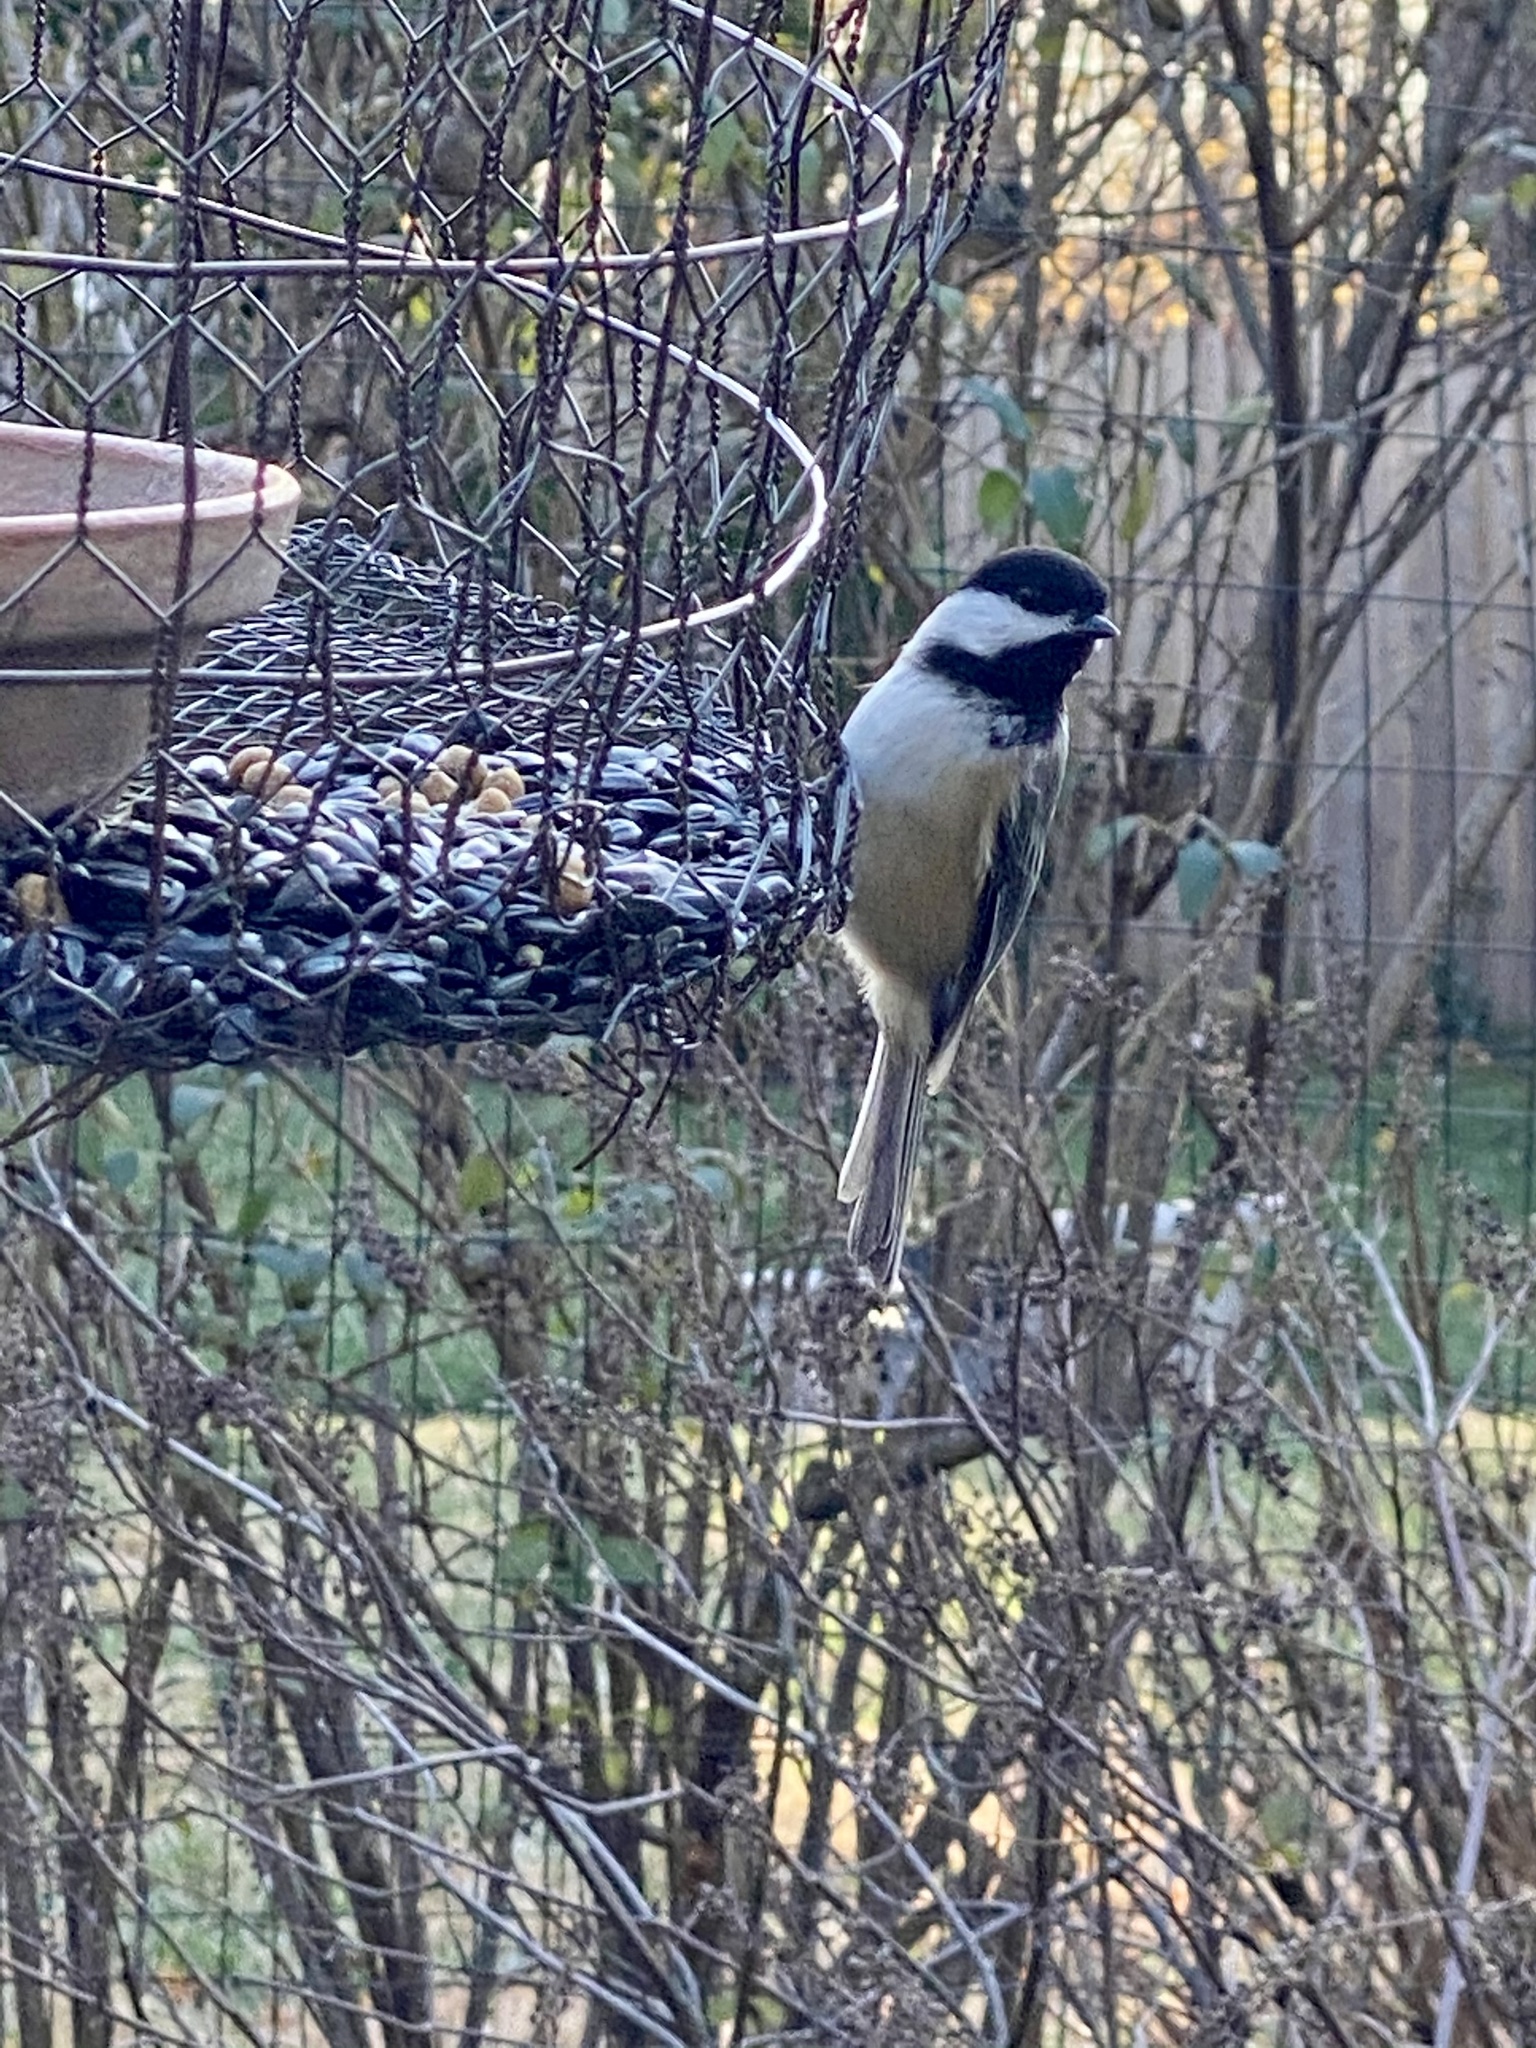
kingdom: Animalia
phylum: Chordata
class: Aves
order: Passeriformes
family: Paridae
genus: Poecile
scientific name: Poecile atricapillus
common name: Black-capped chickadee
